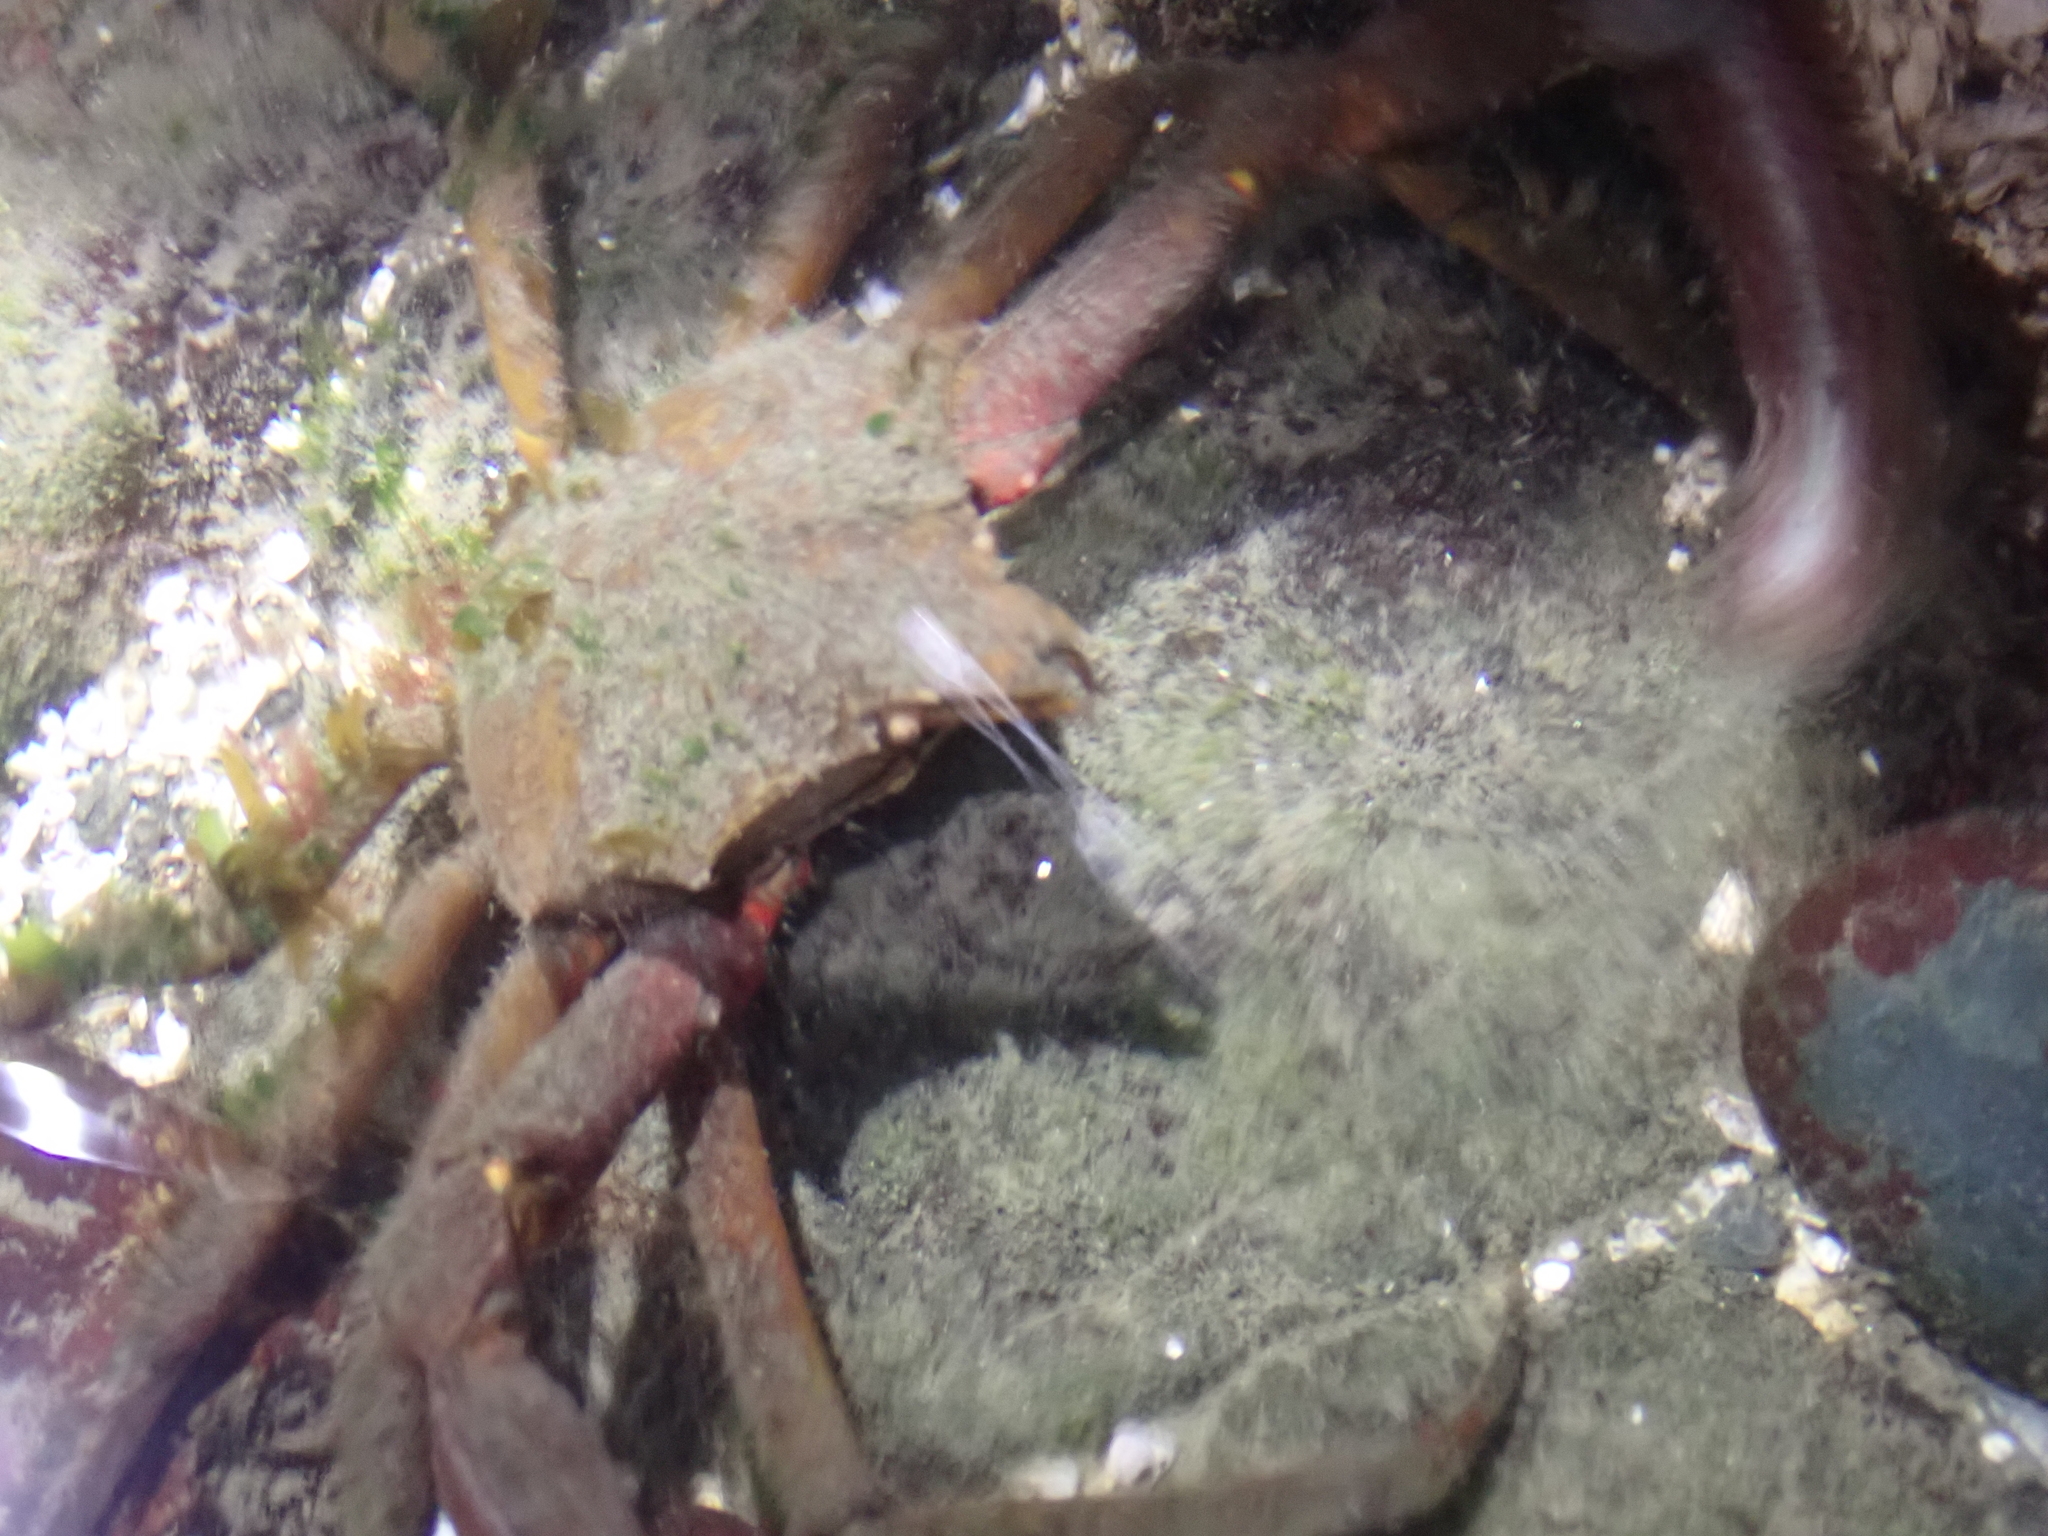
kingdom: Animalia
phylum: Arthropoda
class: Malacostraca
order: Decapoda
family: Epialtidae
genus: Pugettia
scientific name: Pugettia producta
